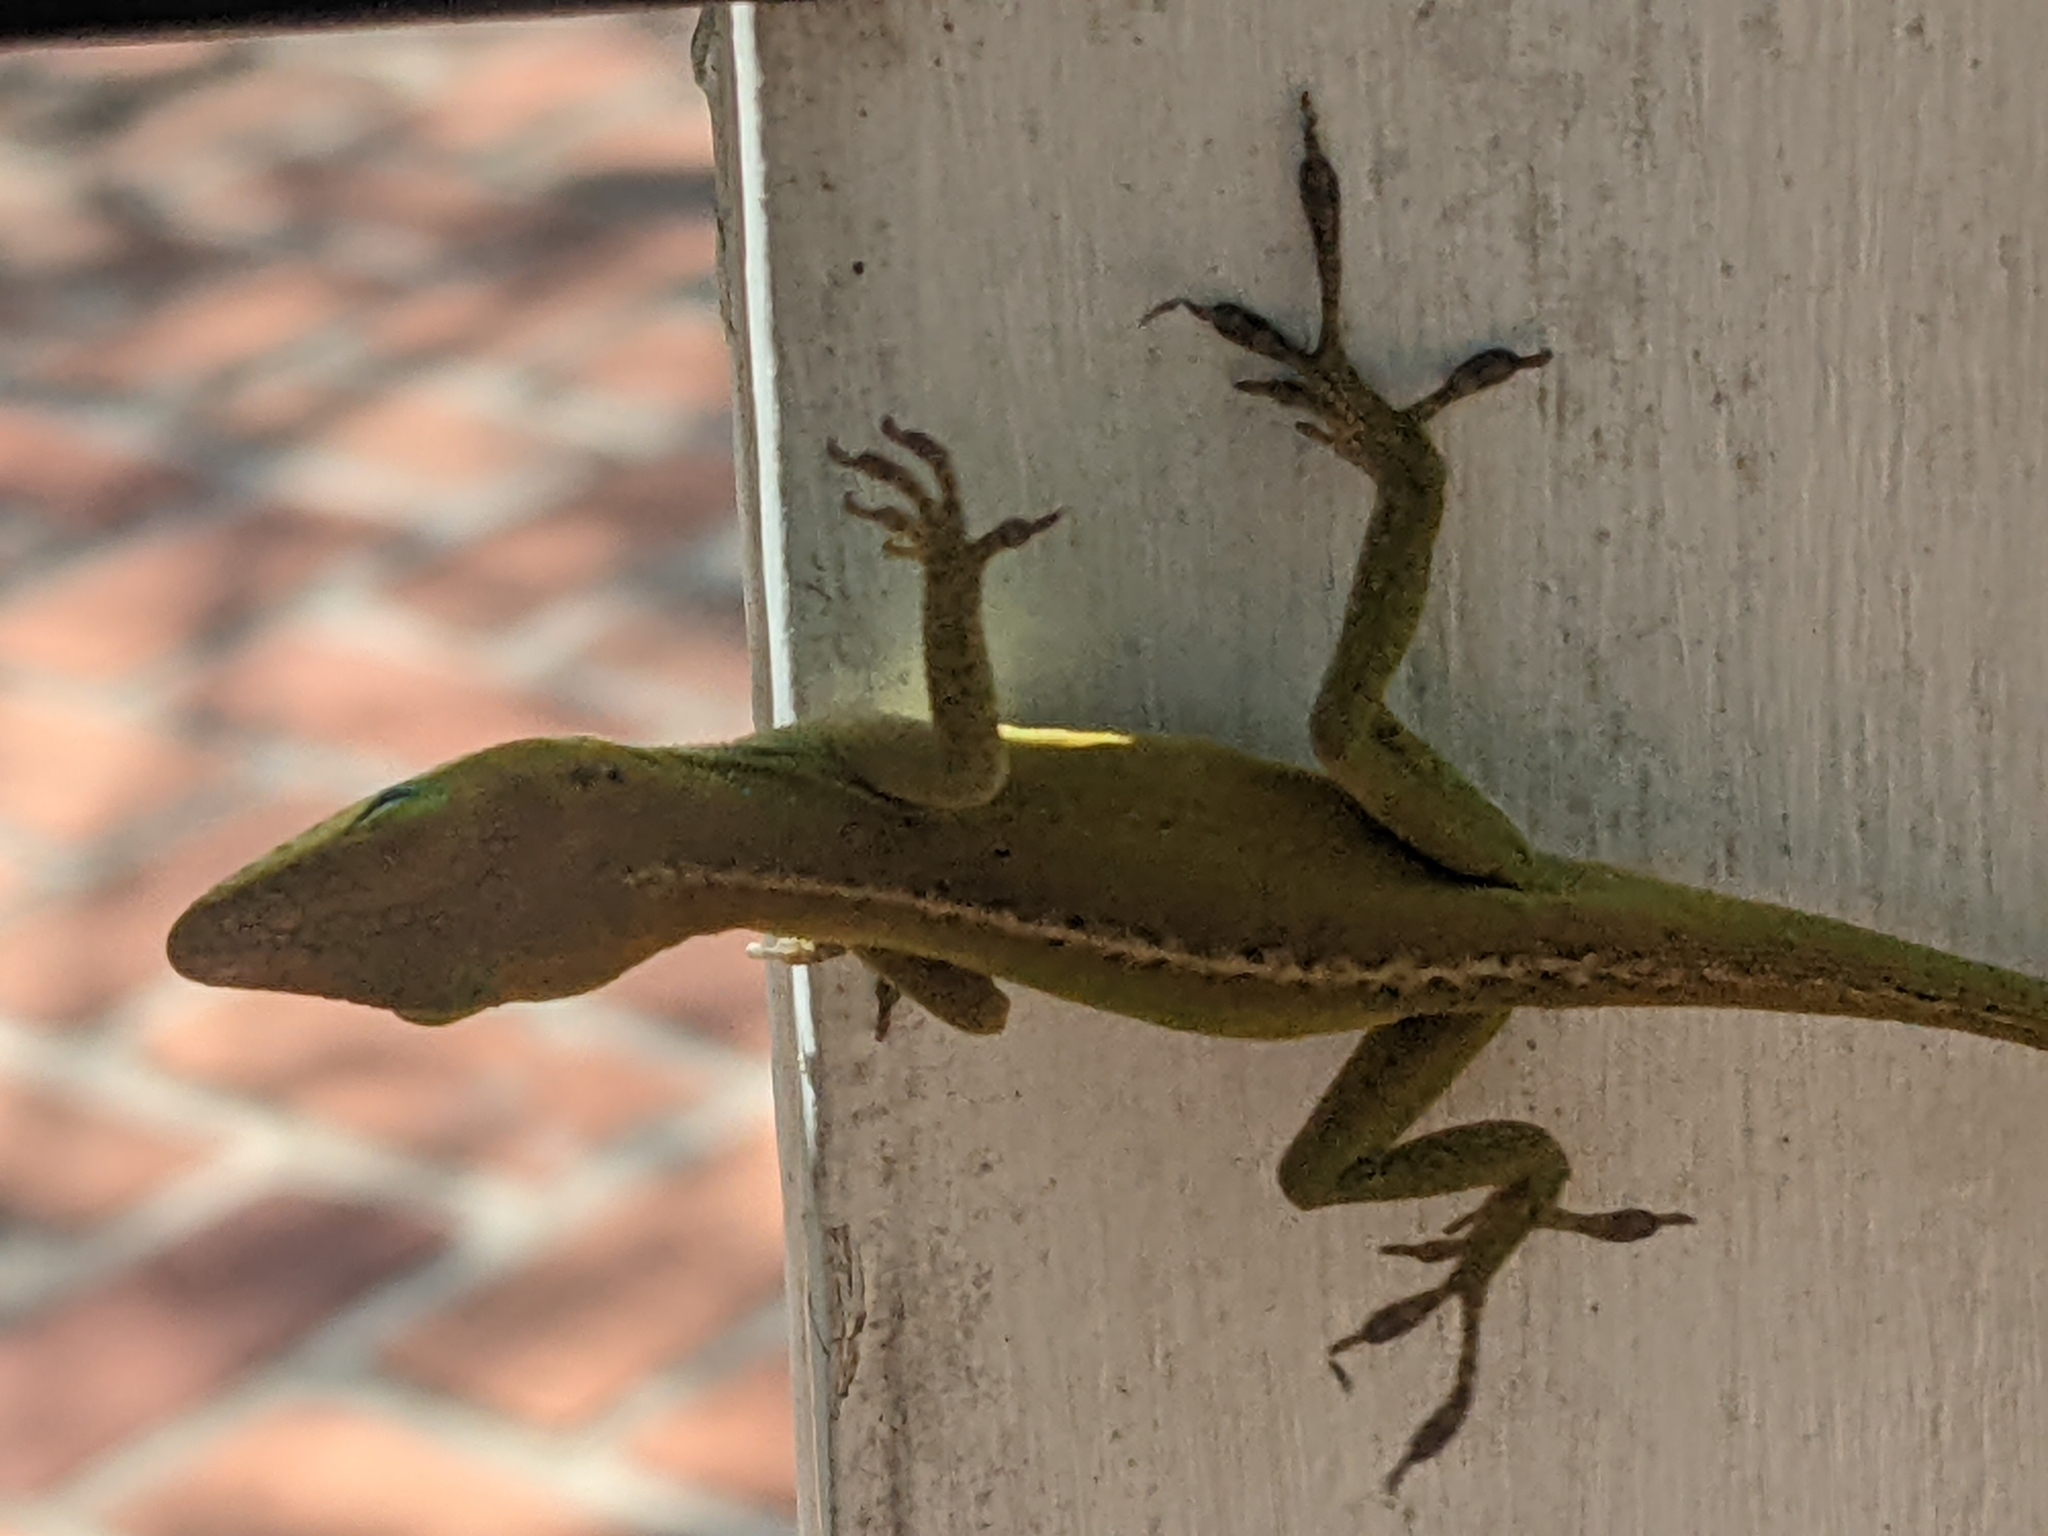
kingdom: Animalia
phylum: Chordata
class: Squamata
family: Dactyloidae
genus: Anolis
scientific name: Anolis carolinensis
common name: Green anole
